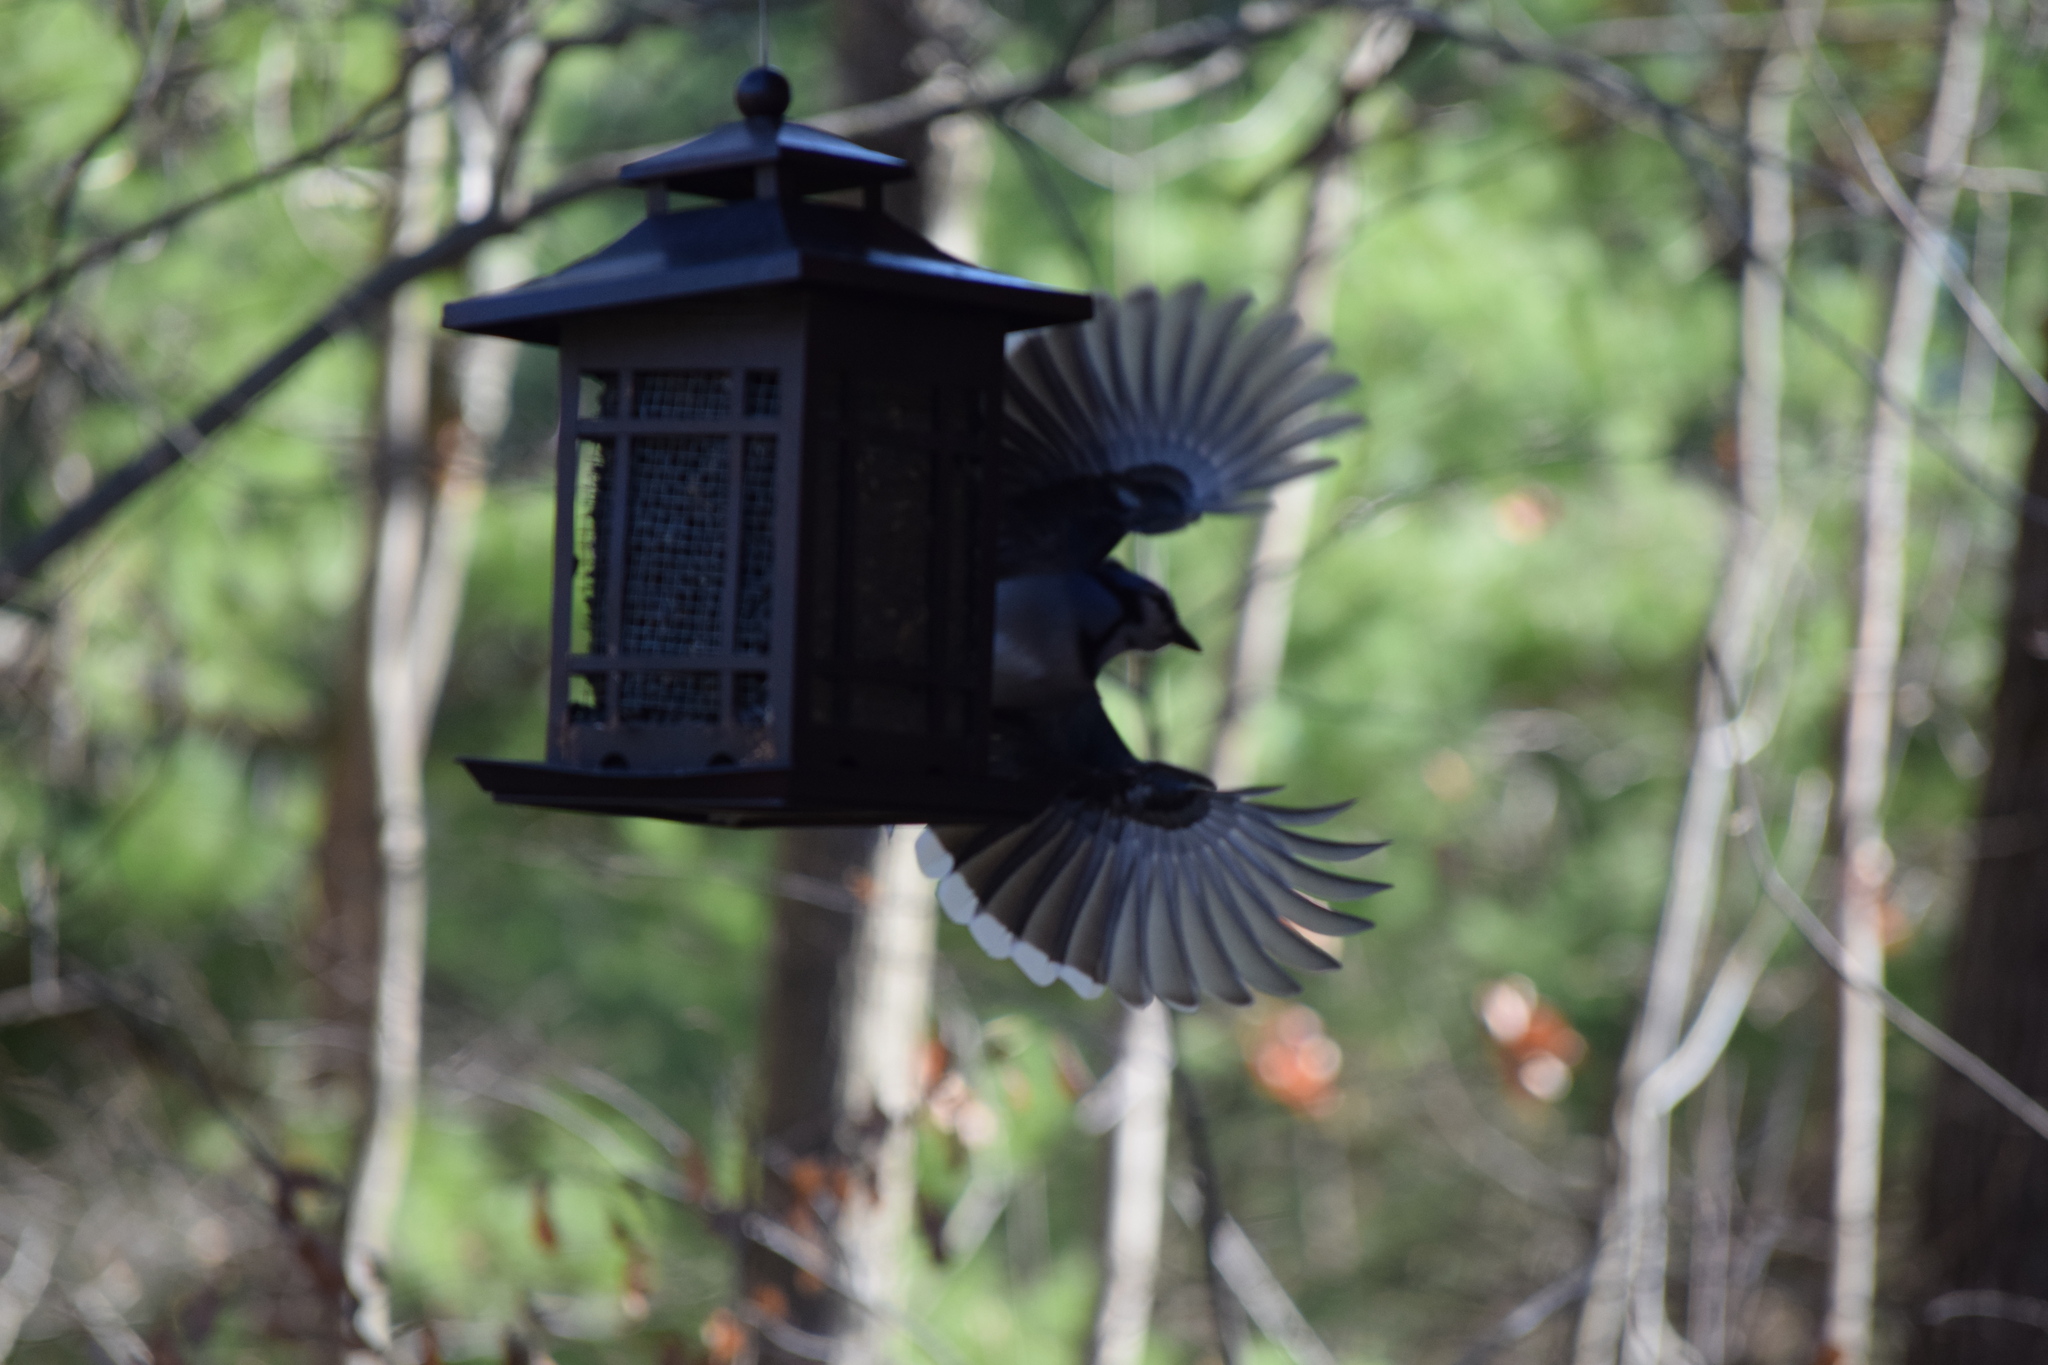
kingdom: Animalia
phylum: Chordata
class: Aves
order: Passeriformes
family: Corvidae
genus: Cyanocitta
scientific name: Cyanocitta cristata
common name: Blue jay
